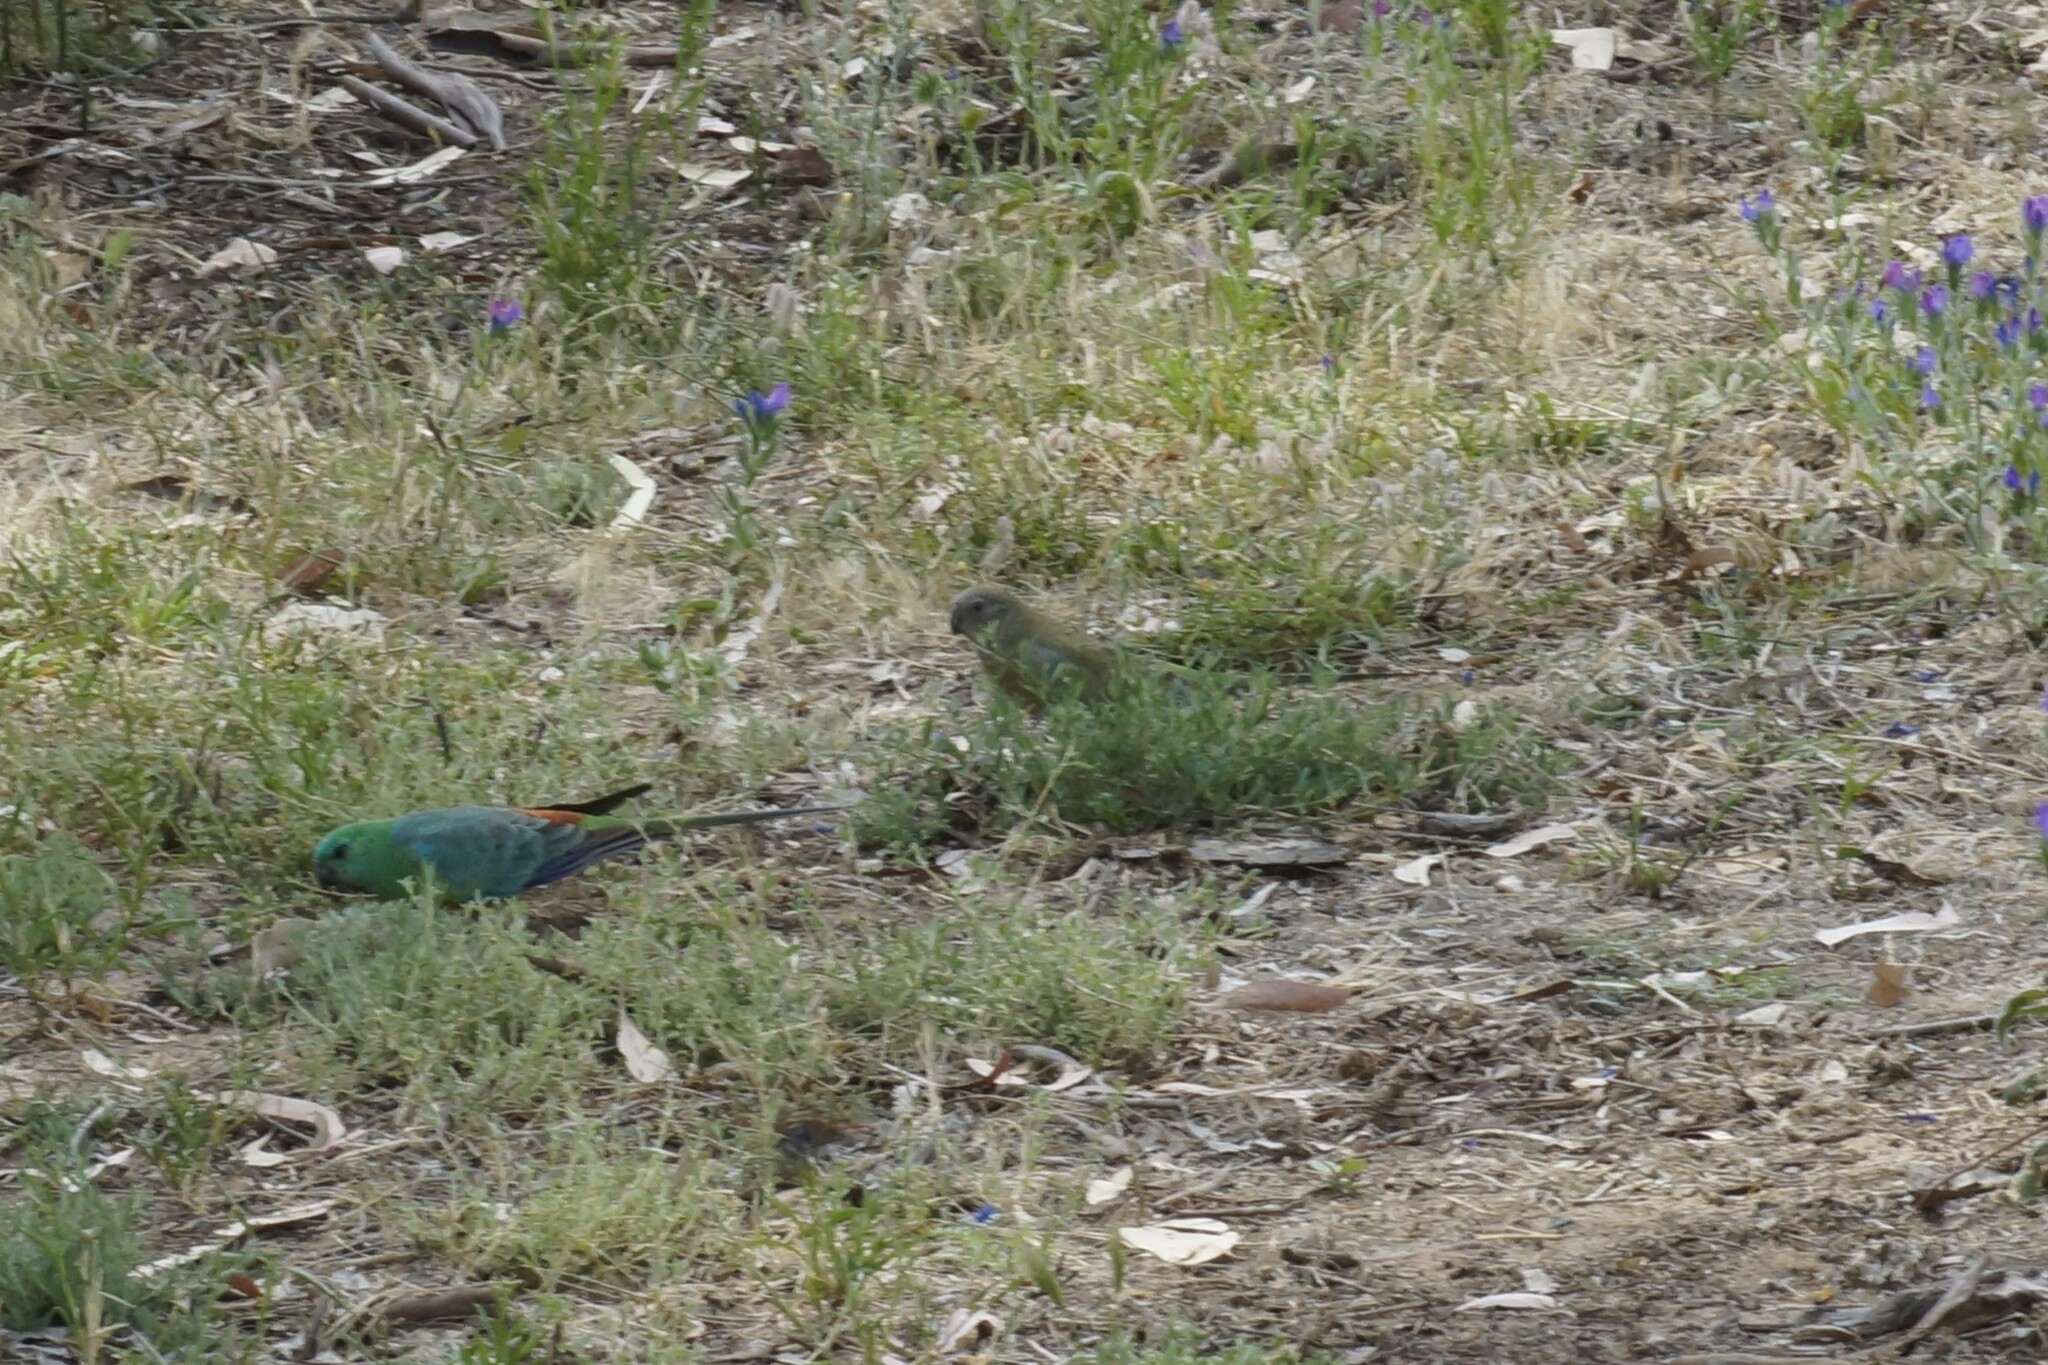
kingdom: Animalia
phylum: Chordata
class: Aves
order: Psittaciformes
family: Psittacidae
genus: Psephotus
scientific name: Psephotus haematonotus
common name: Red-rumped parrot
